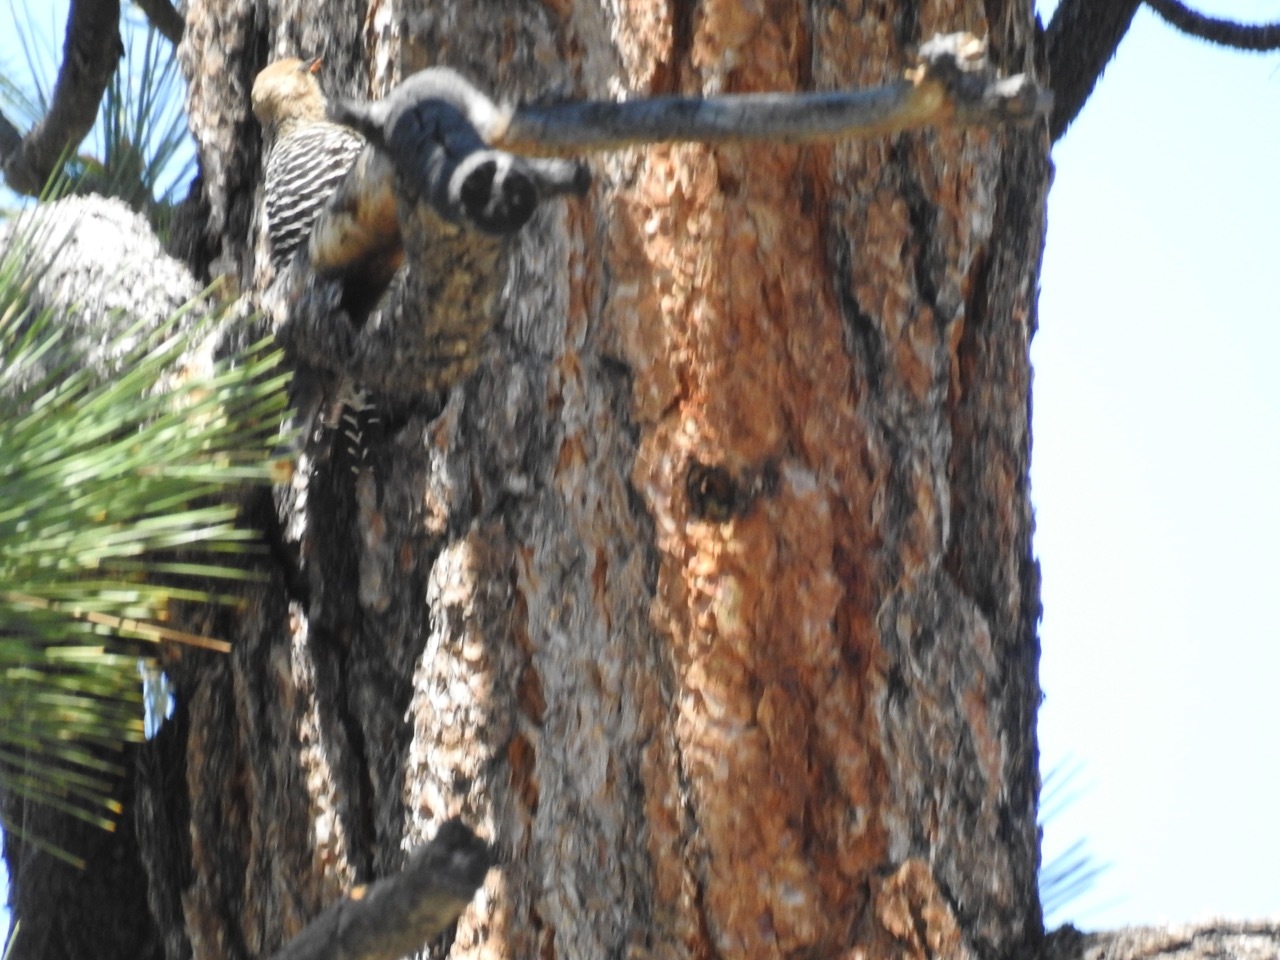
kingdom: Animalia
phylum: Chordata
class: Aves
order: Piciformes
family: Picidae
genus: Sphyrapicus
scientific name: Sphyrapicus thyroideus
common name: Williamson's sapsucker
